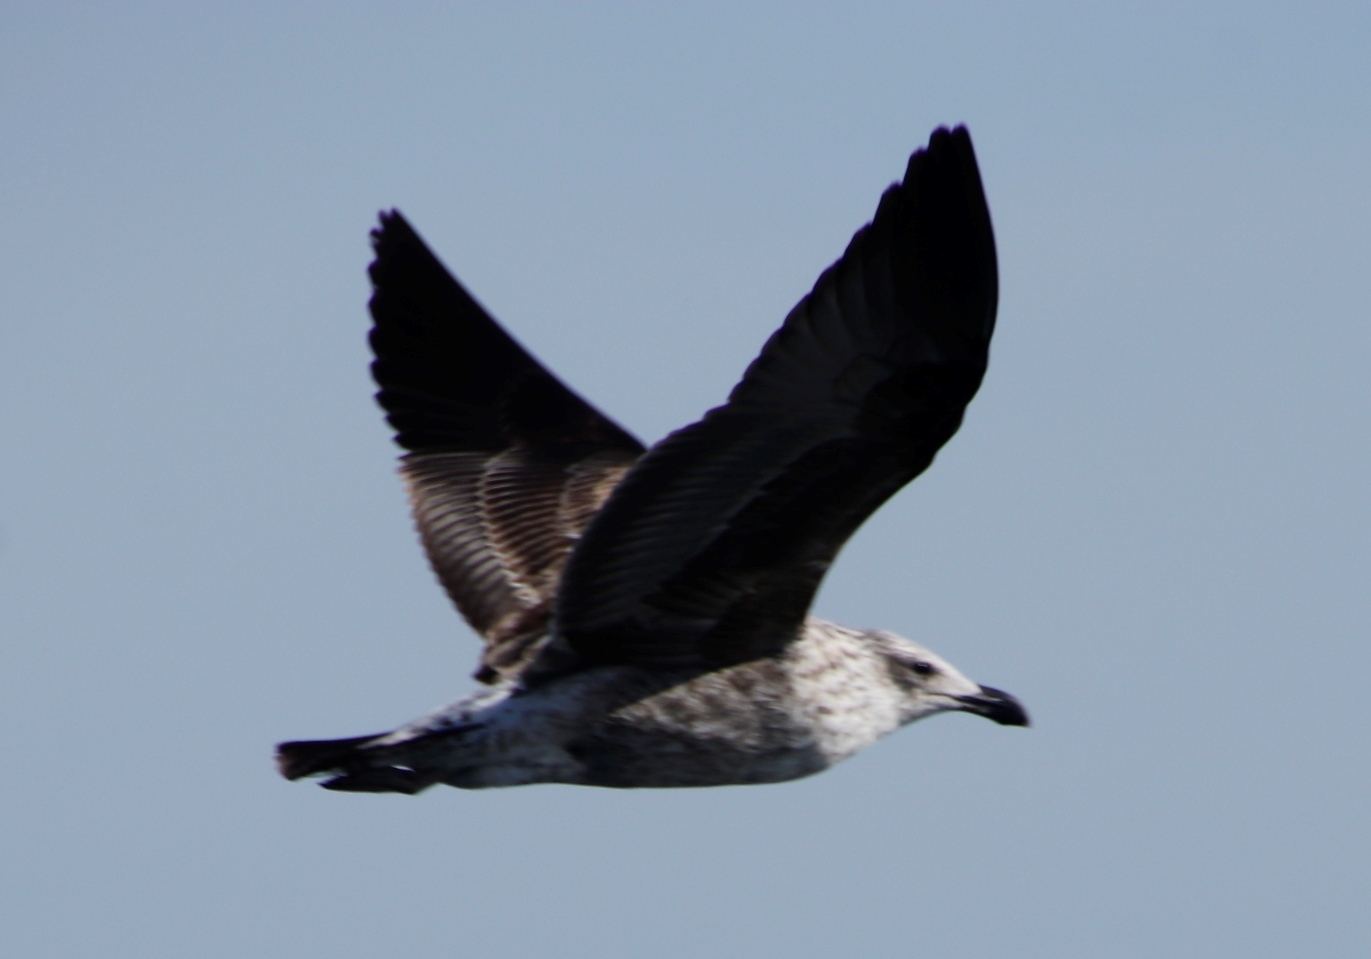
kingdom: Animalia
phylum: Chordata
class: Aves
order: Charadriiformes
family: Laridae
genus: Larus
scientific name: Larus dominicanus
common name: Kelp gull
